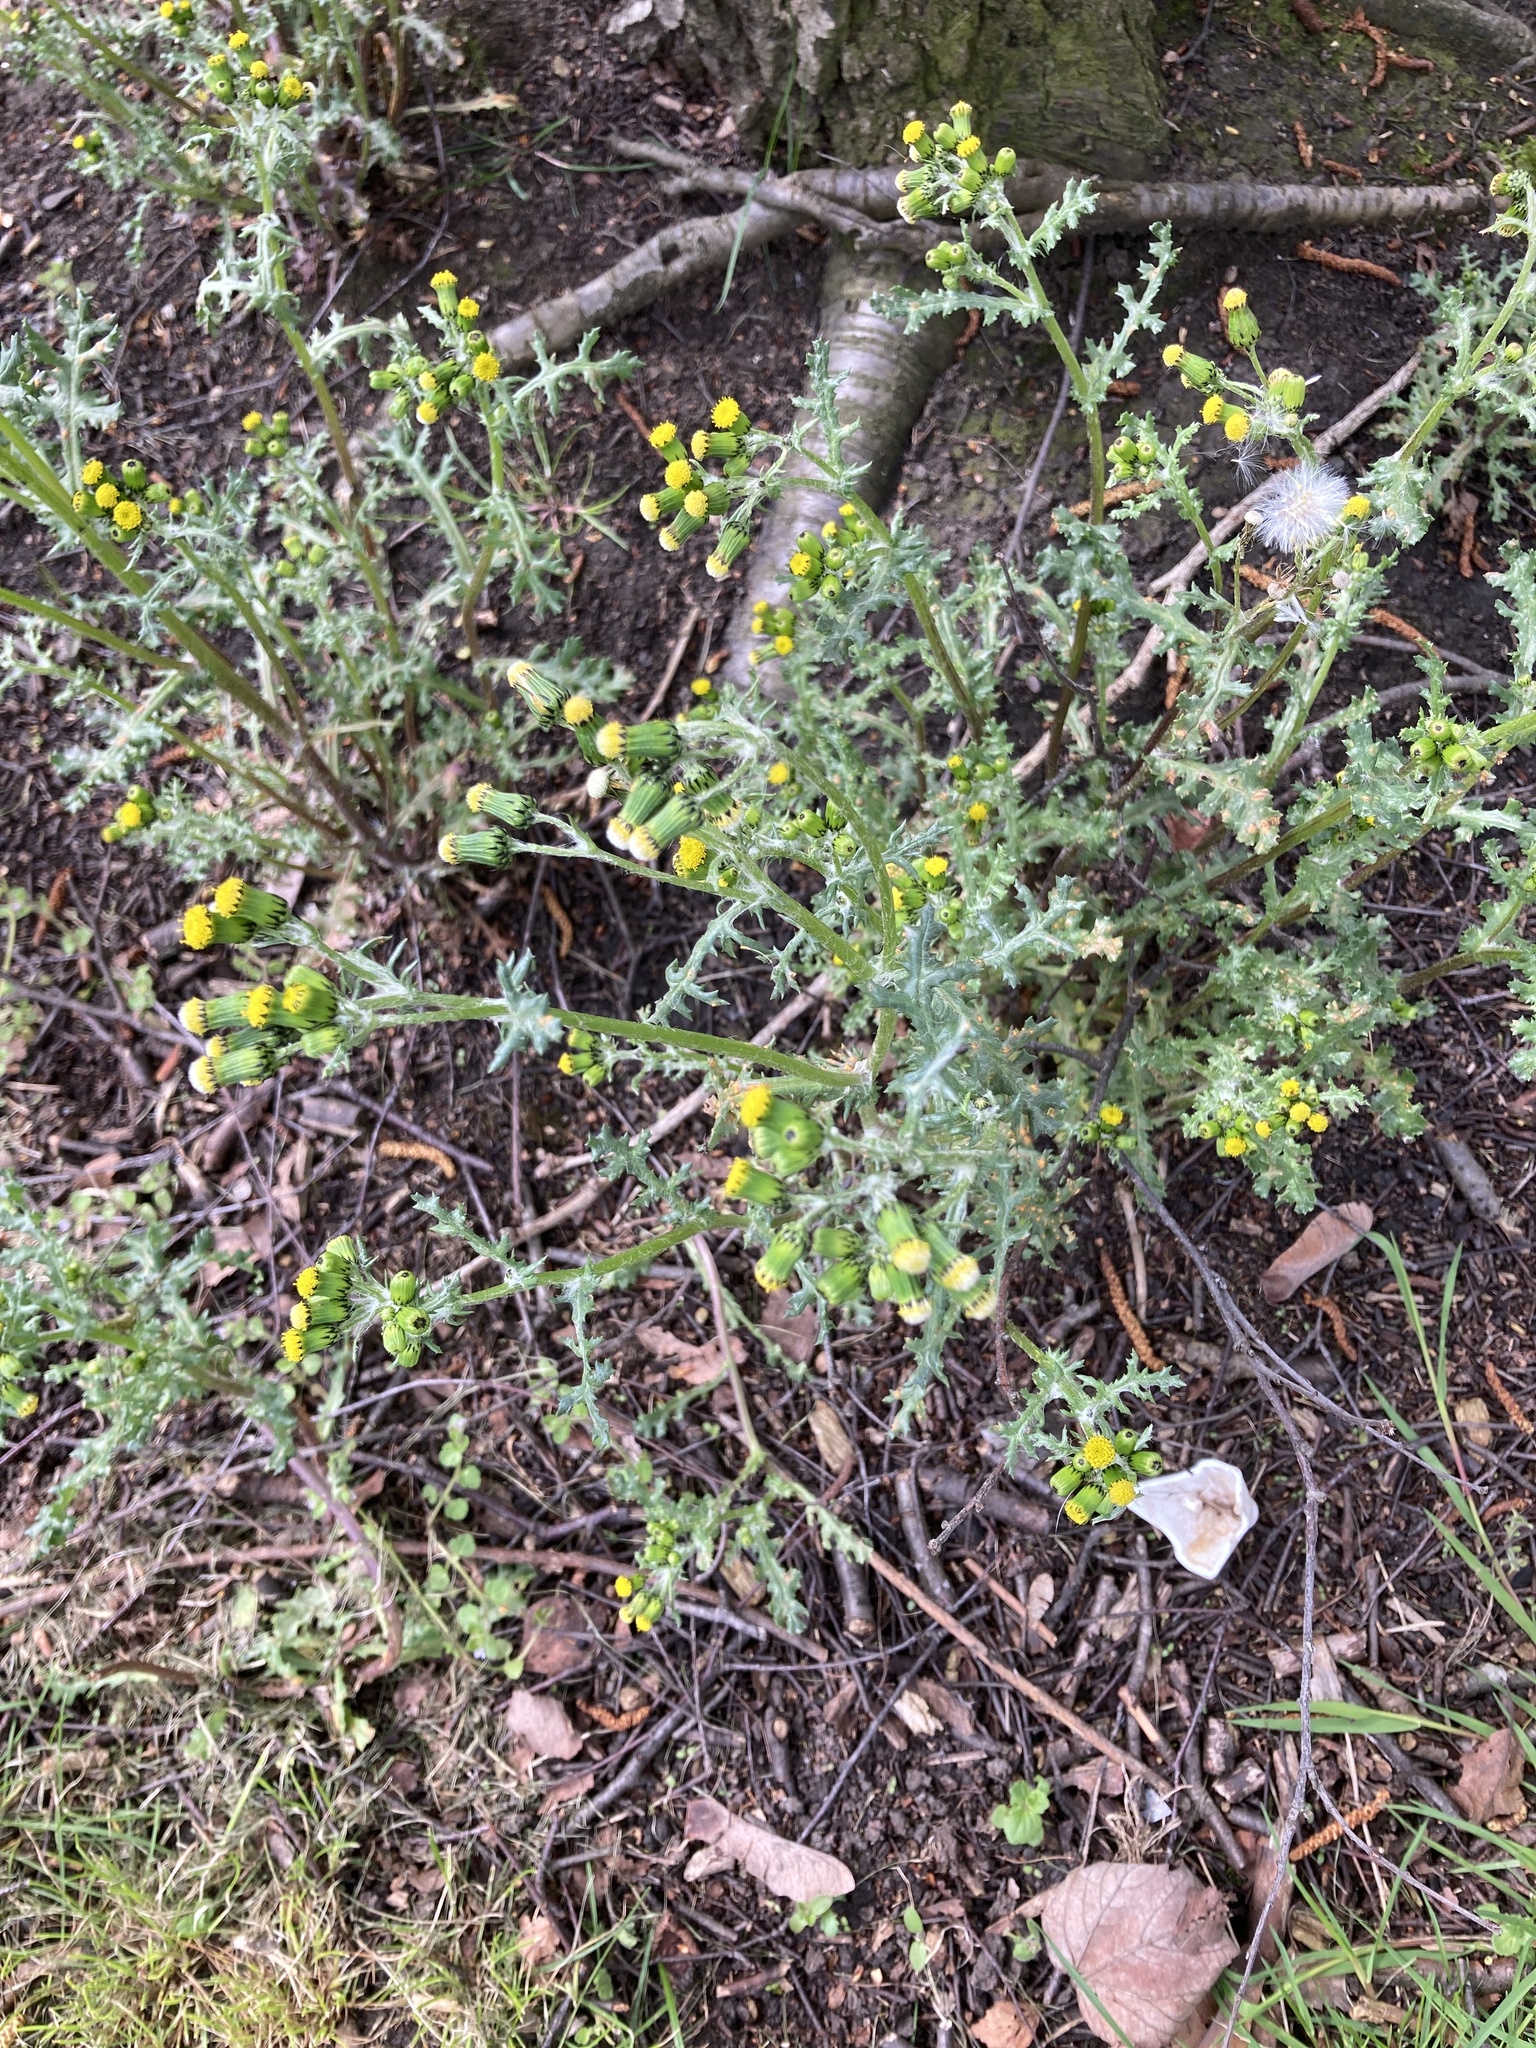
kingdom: Plantae
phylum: Tracheophyta
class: Magnoliopsida
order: Asterales
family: Asteraceae
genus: Senecio
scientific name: Senecio vulgaris
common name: Old-man-in-the-spring
